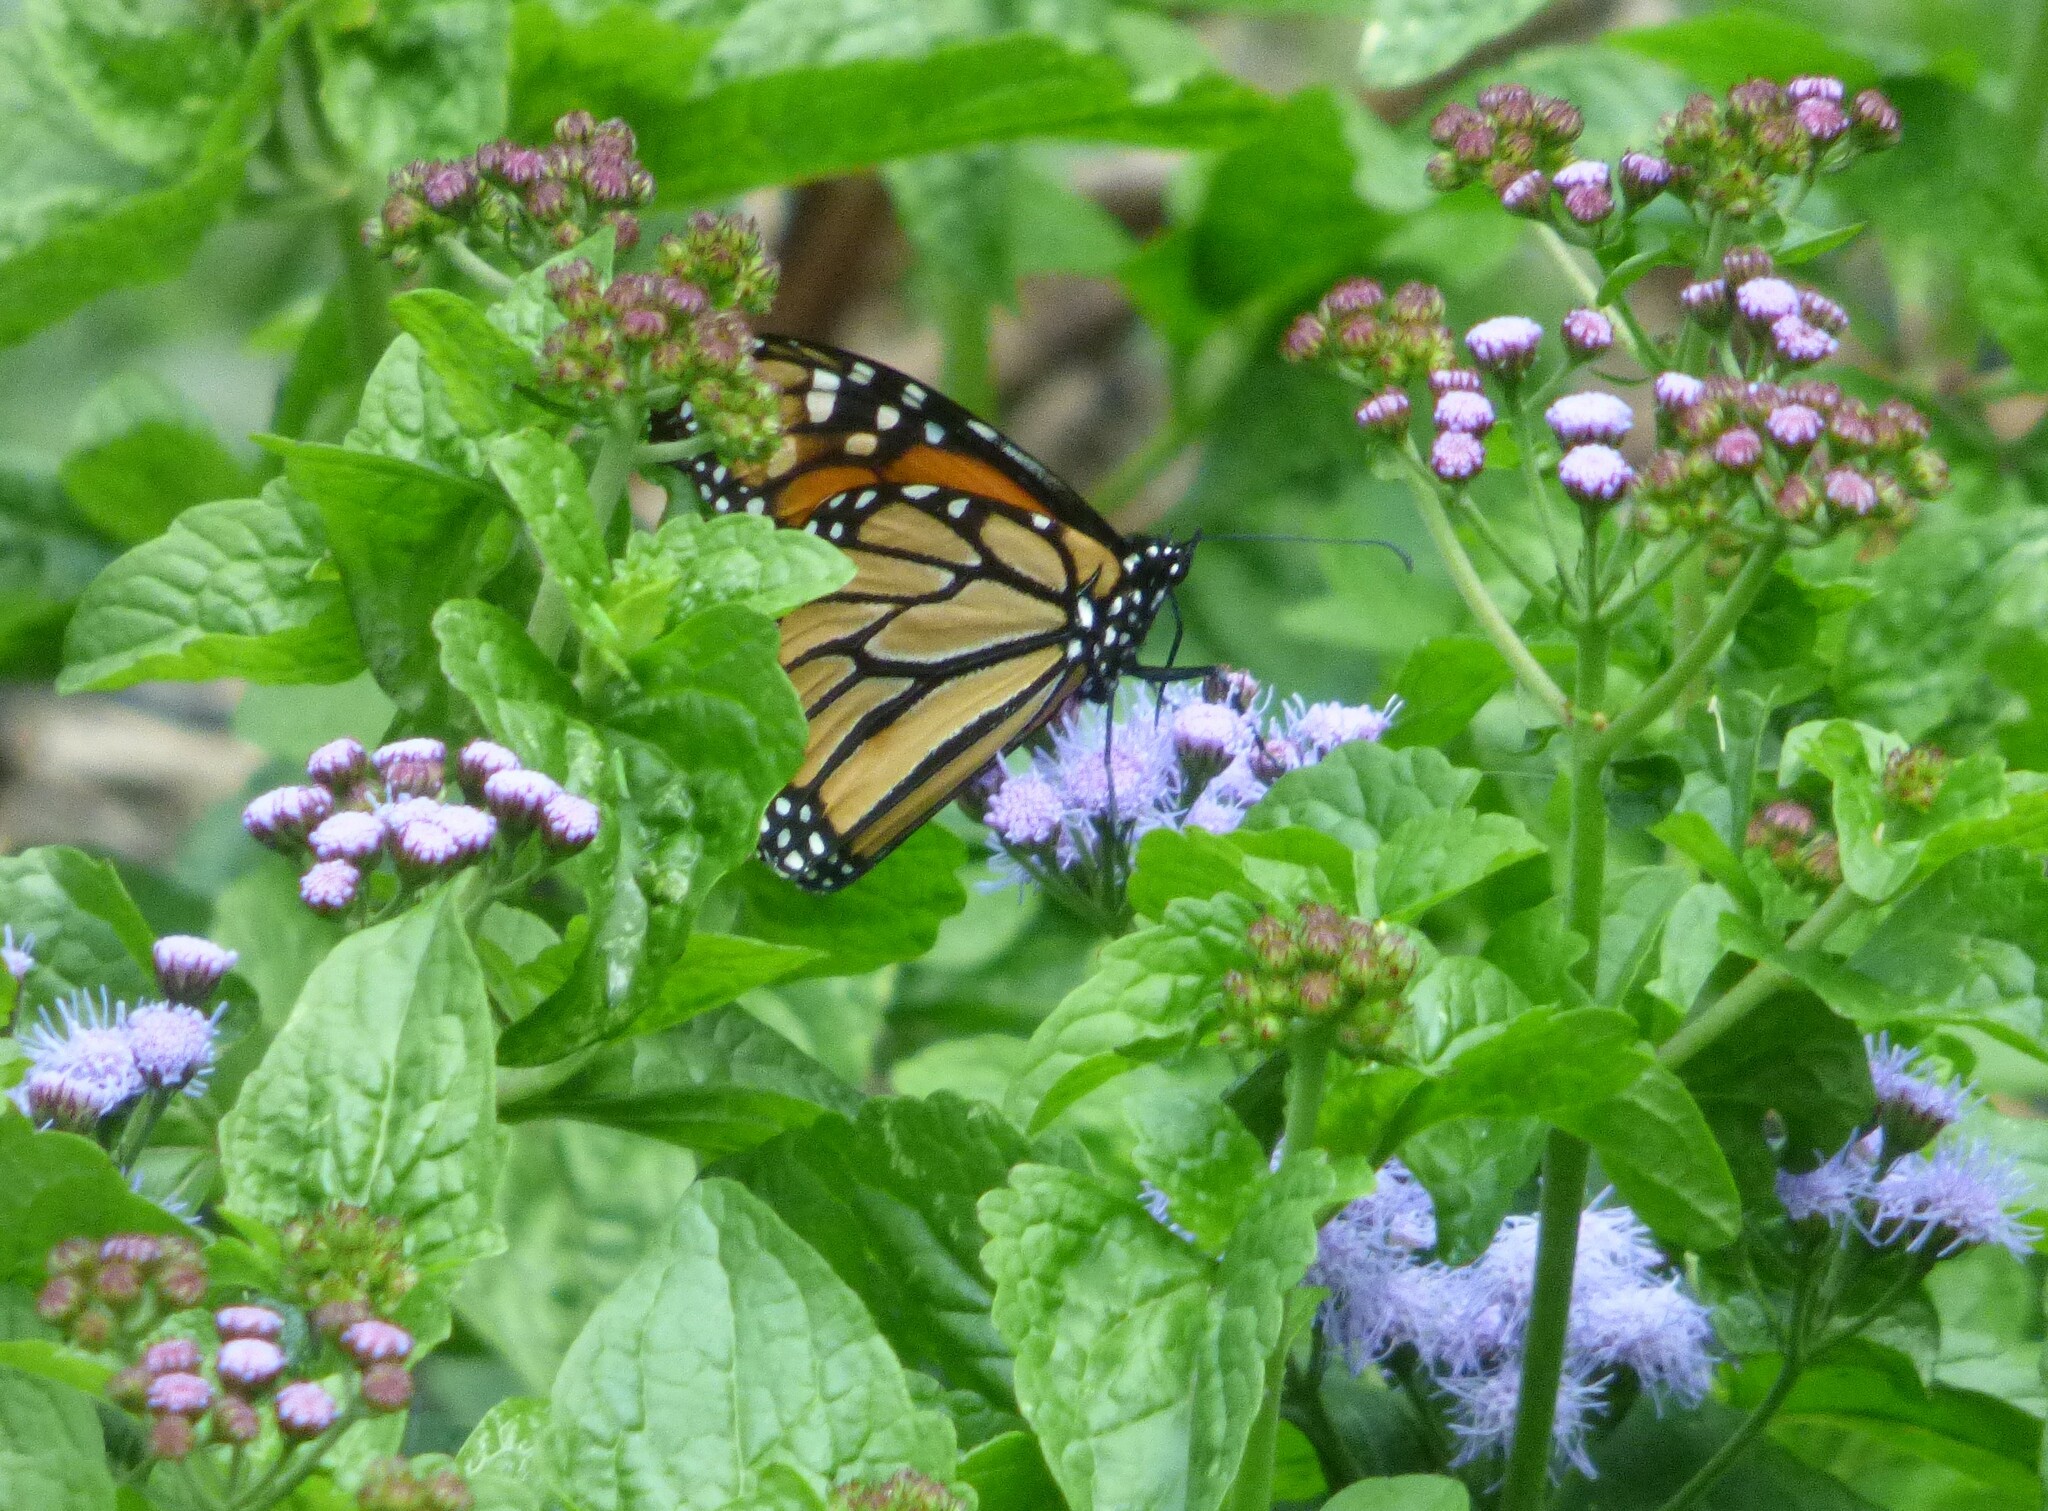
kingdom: Animalia
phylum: Arthropoda
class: Insecta
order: Lepidoptera
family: Nymphalidae
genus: Danaus
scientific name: Danaus plexippus
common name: Monarch
